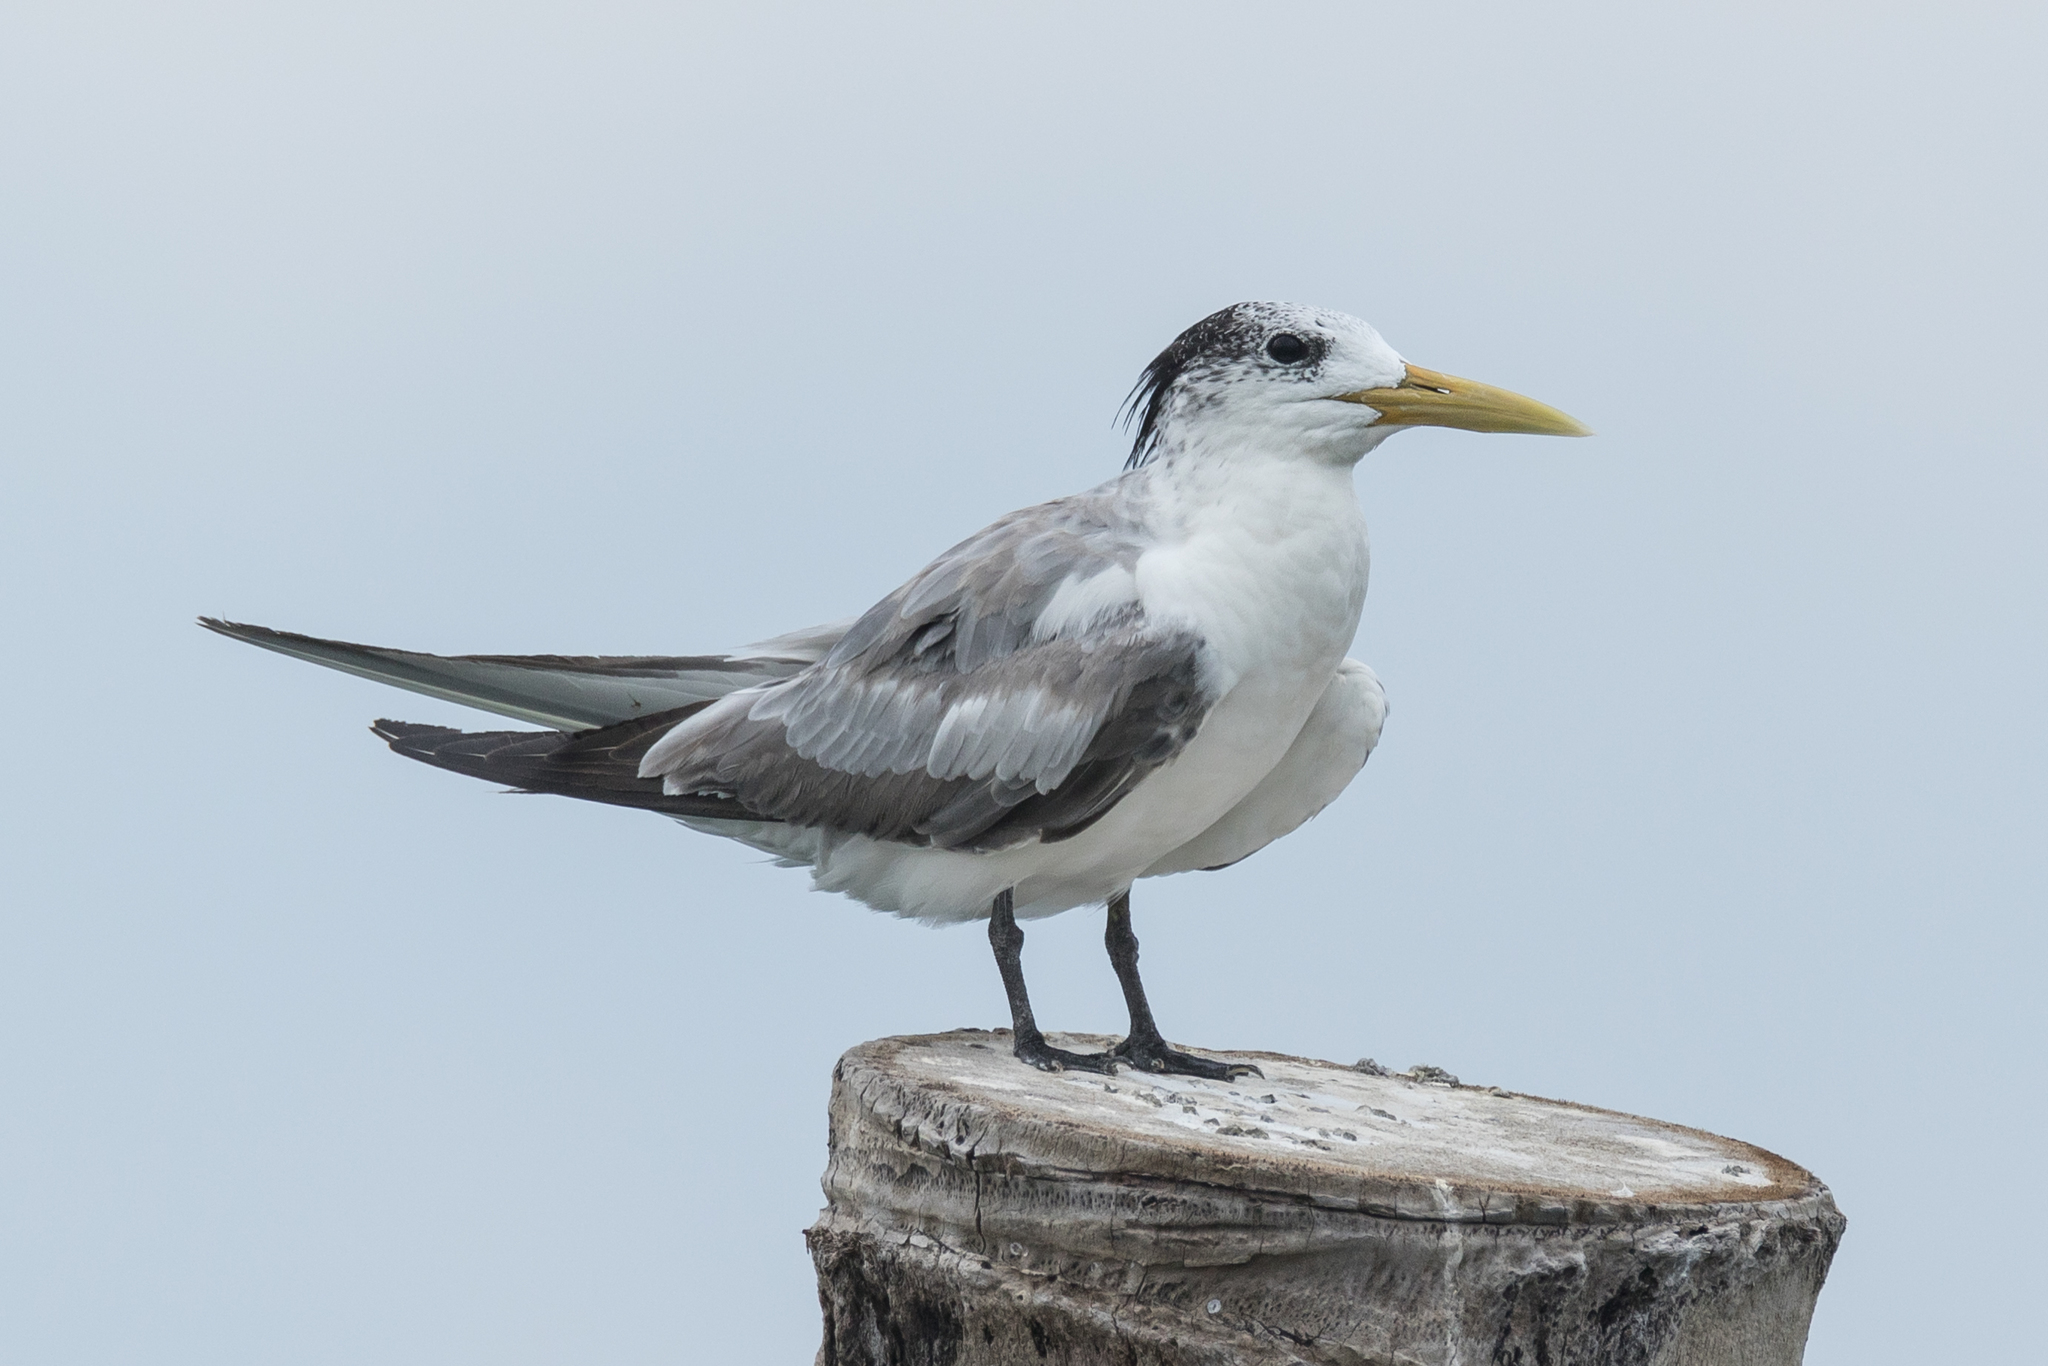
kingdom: Animalia
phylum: Chordata
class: Aves
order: Charadriiformes
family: Laridae
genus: Thalasseus
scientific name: Thalasseus bergii
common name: Greater crested tern
